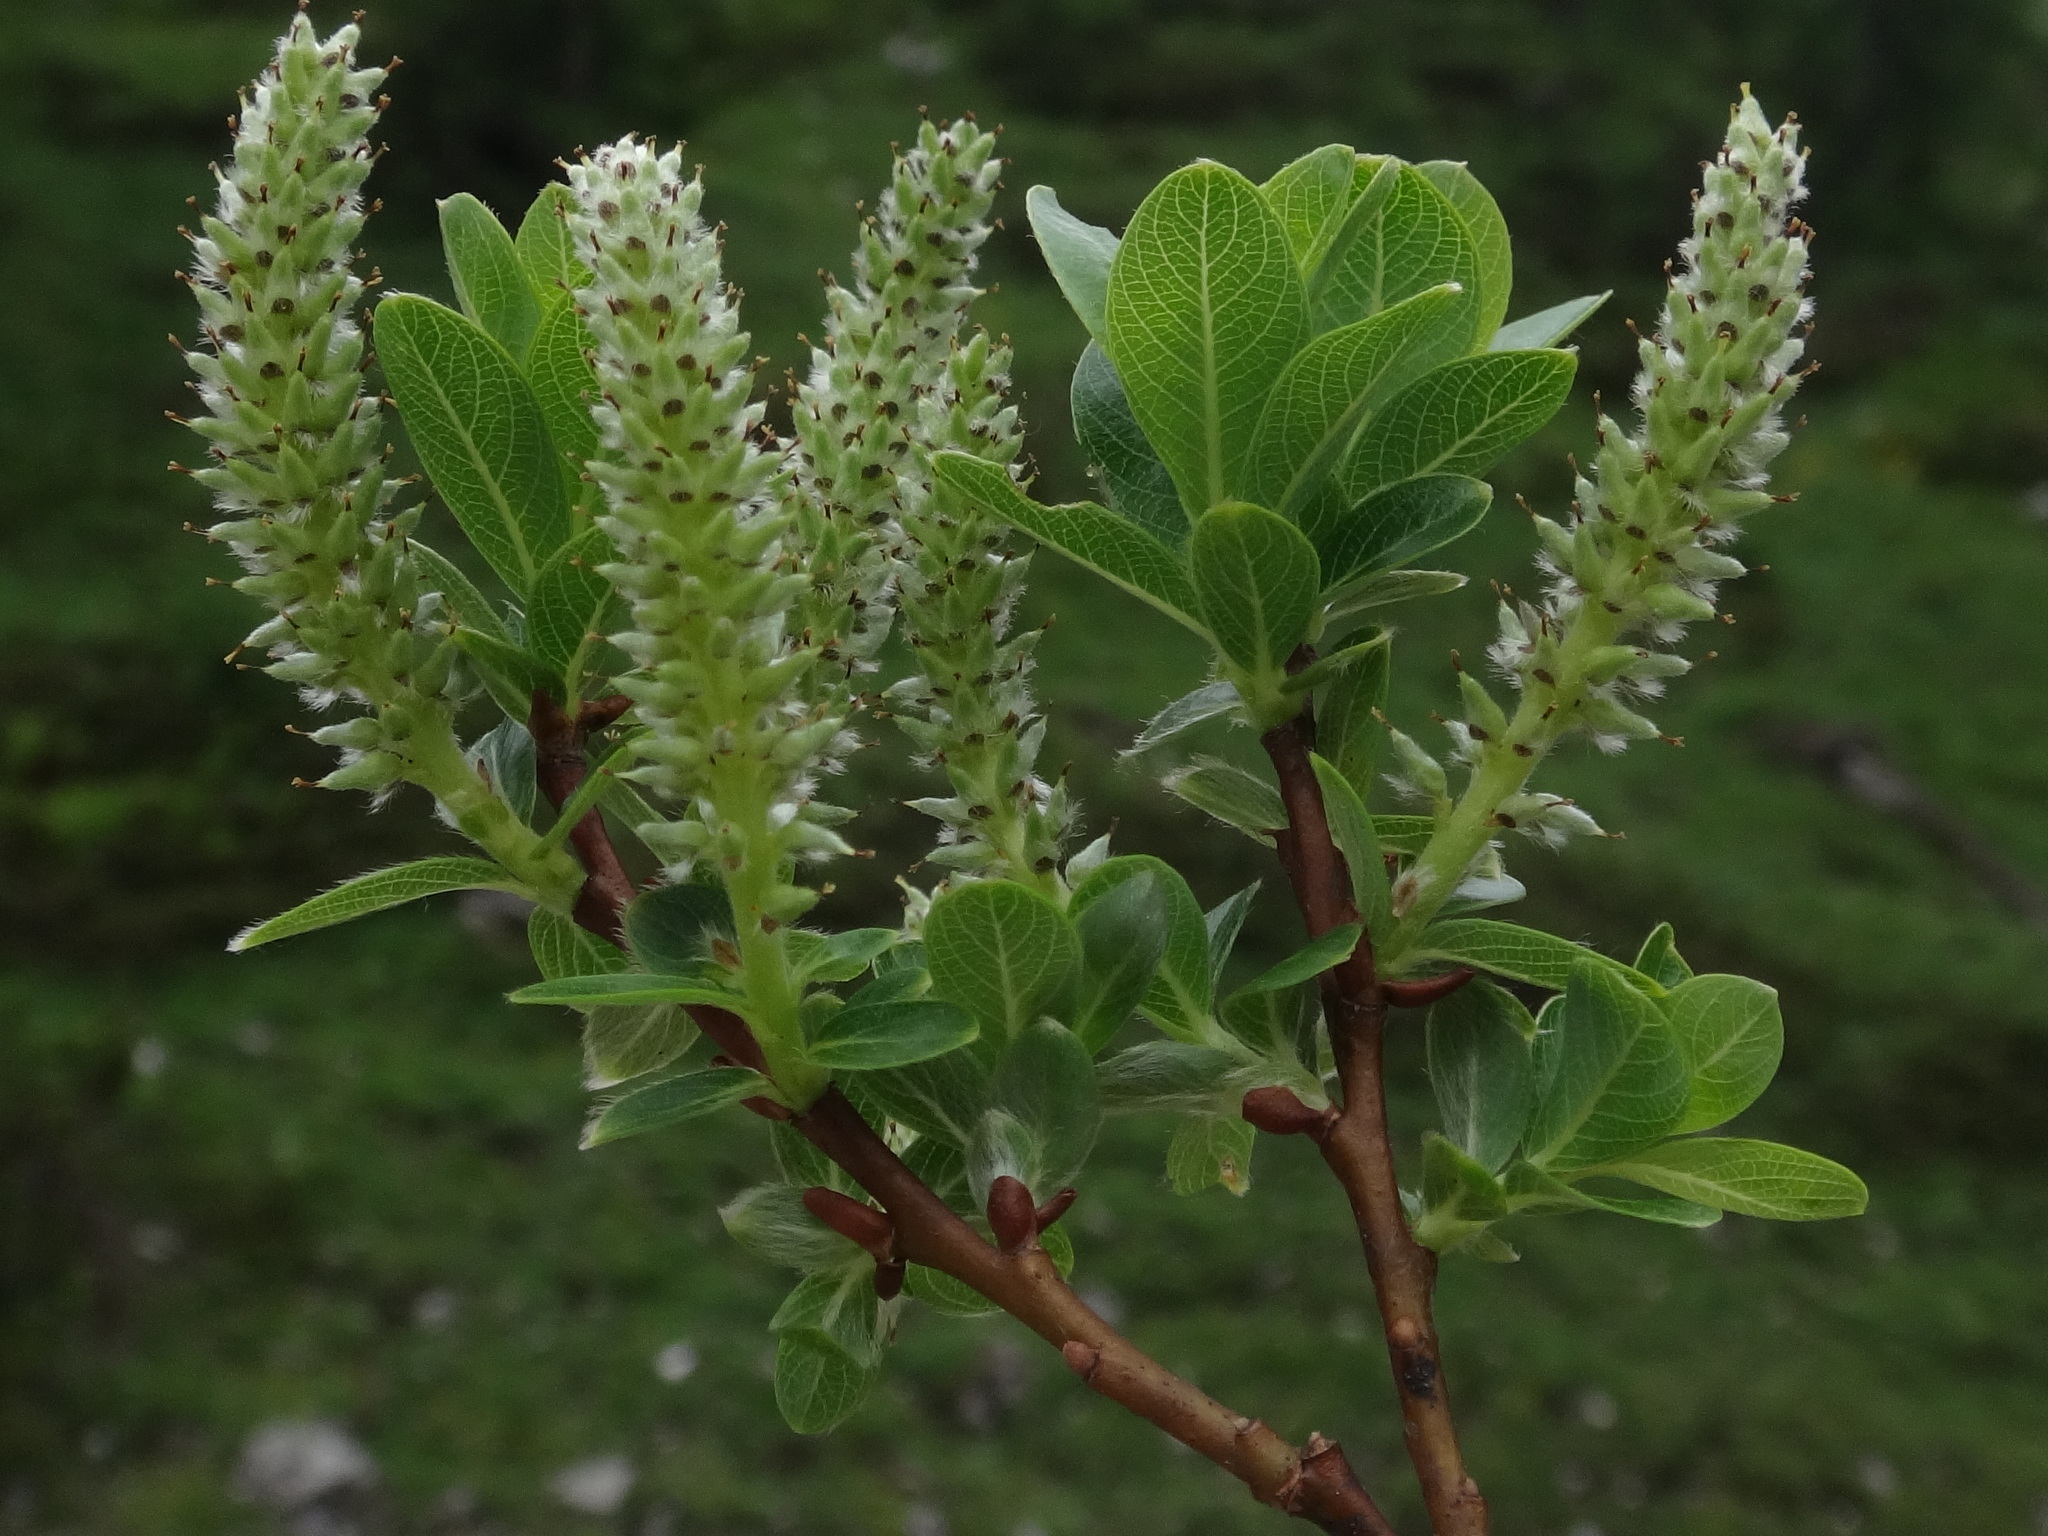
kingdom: Plantae
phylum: Tracheophyta
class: Magnoliopsida
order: Malpighiales
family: Salicaceae
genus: Salix
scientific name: Salix waldsteiniana
